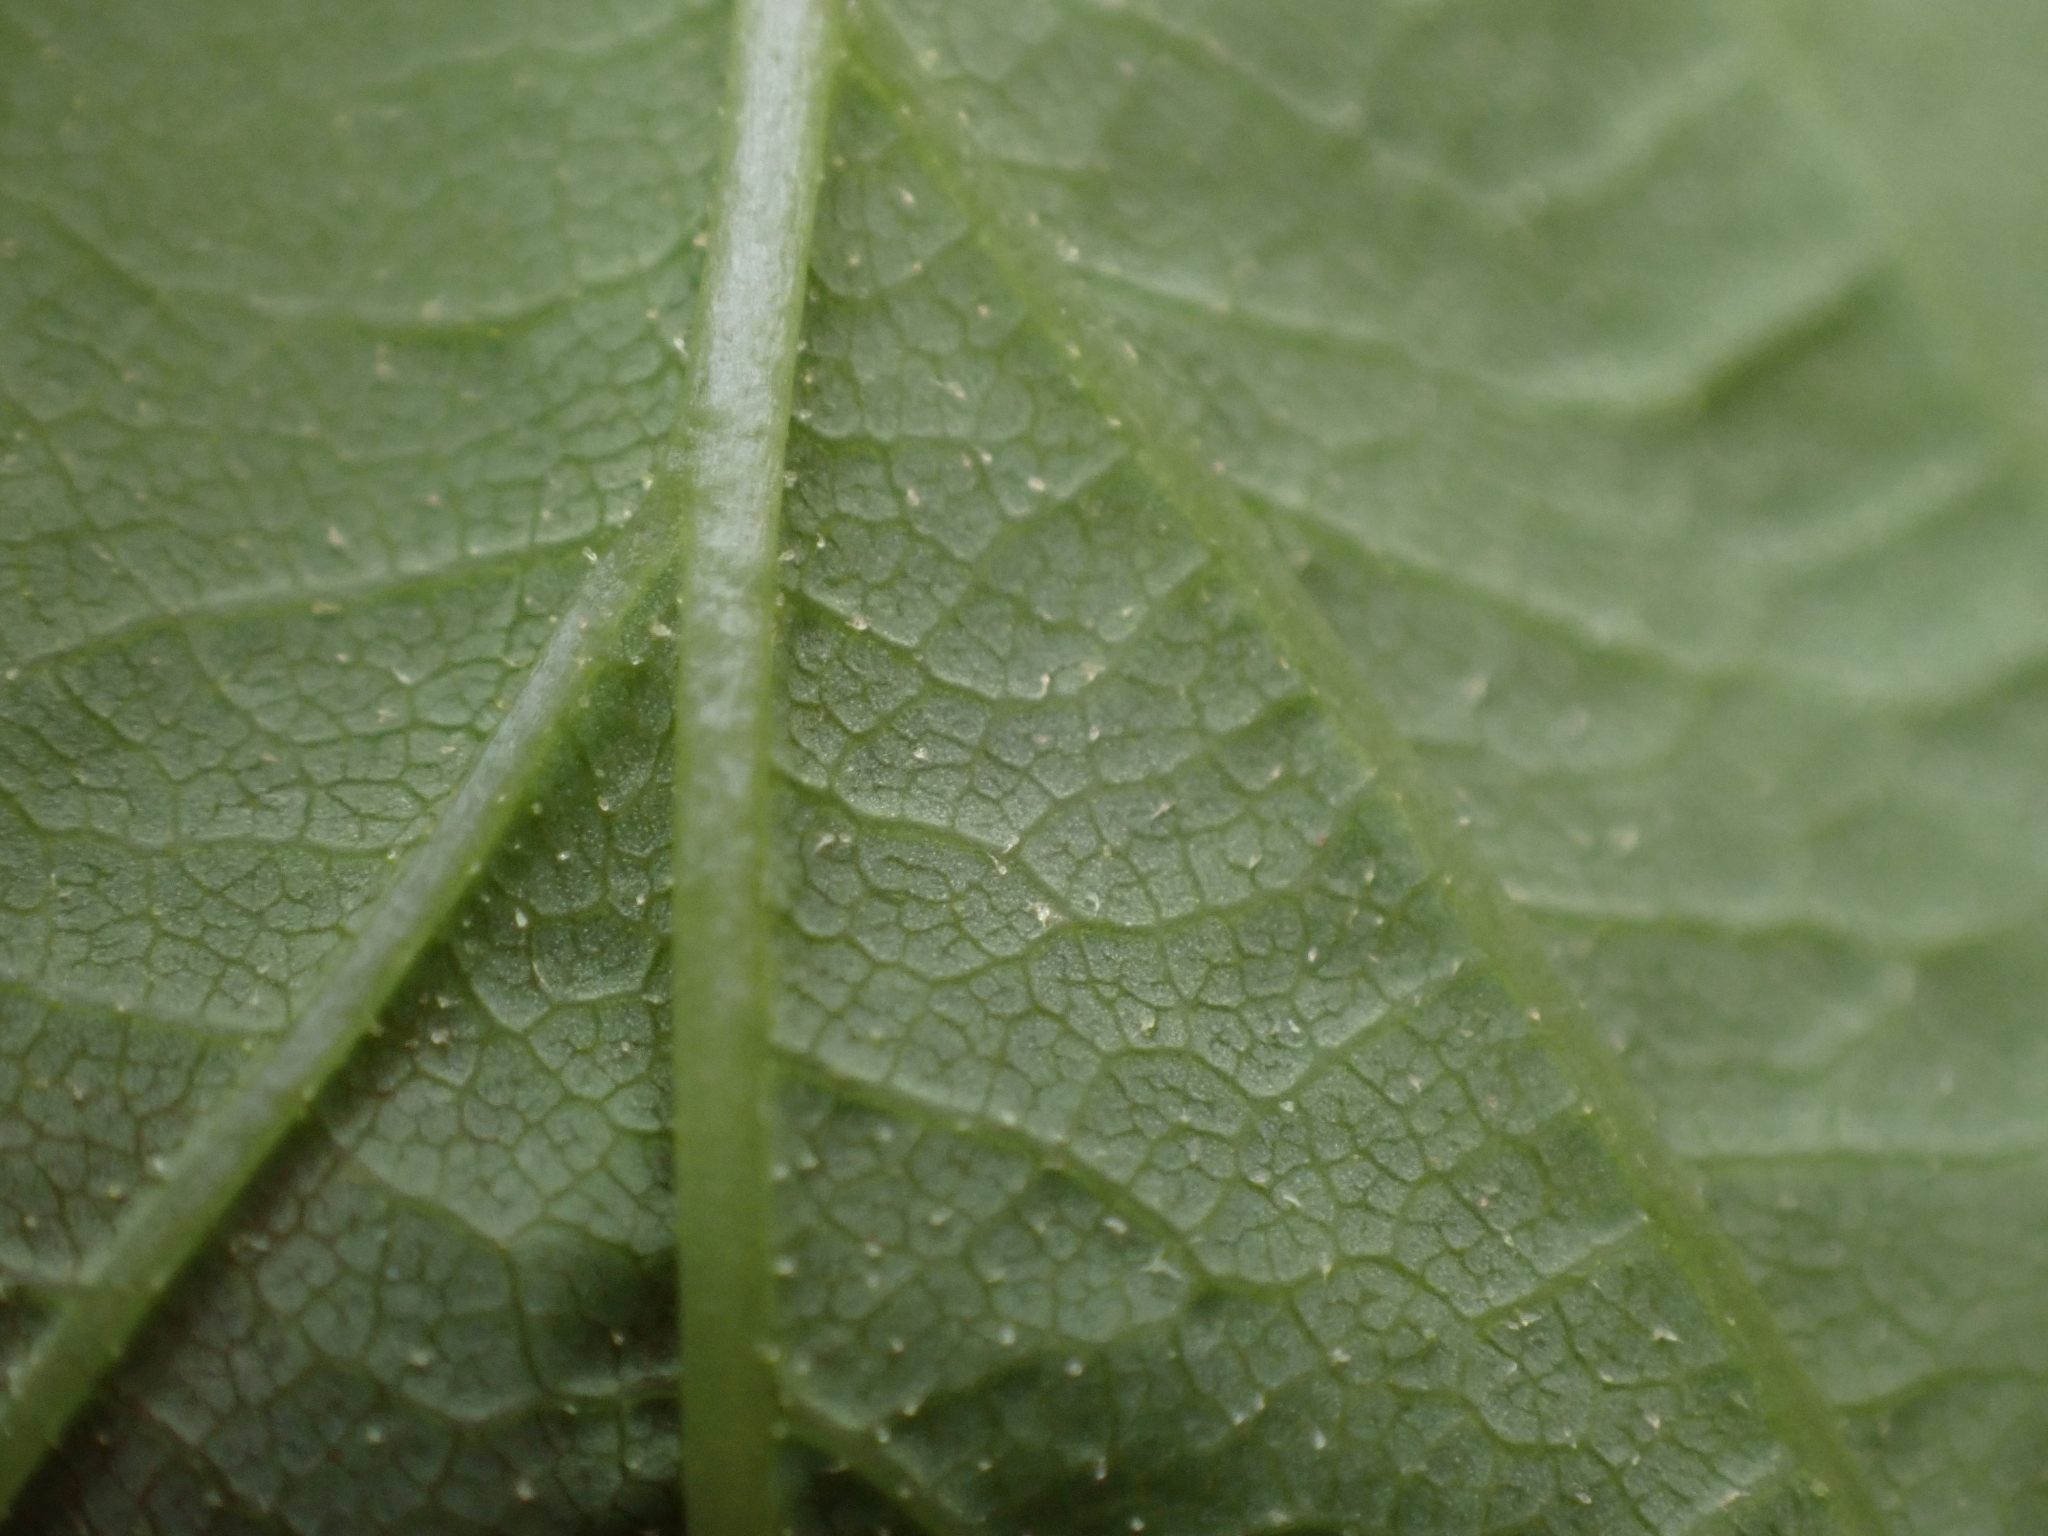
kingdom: Plantae
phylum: Tracheophyta
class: Magnoliopsida
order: Sapindales
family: Sapindaceae
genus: Acer
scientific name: Acer glabrum
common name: Rocky mountain maple
